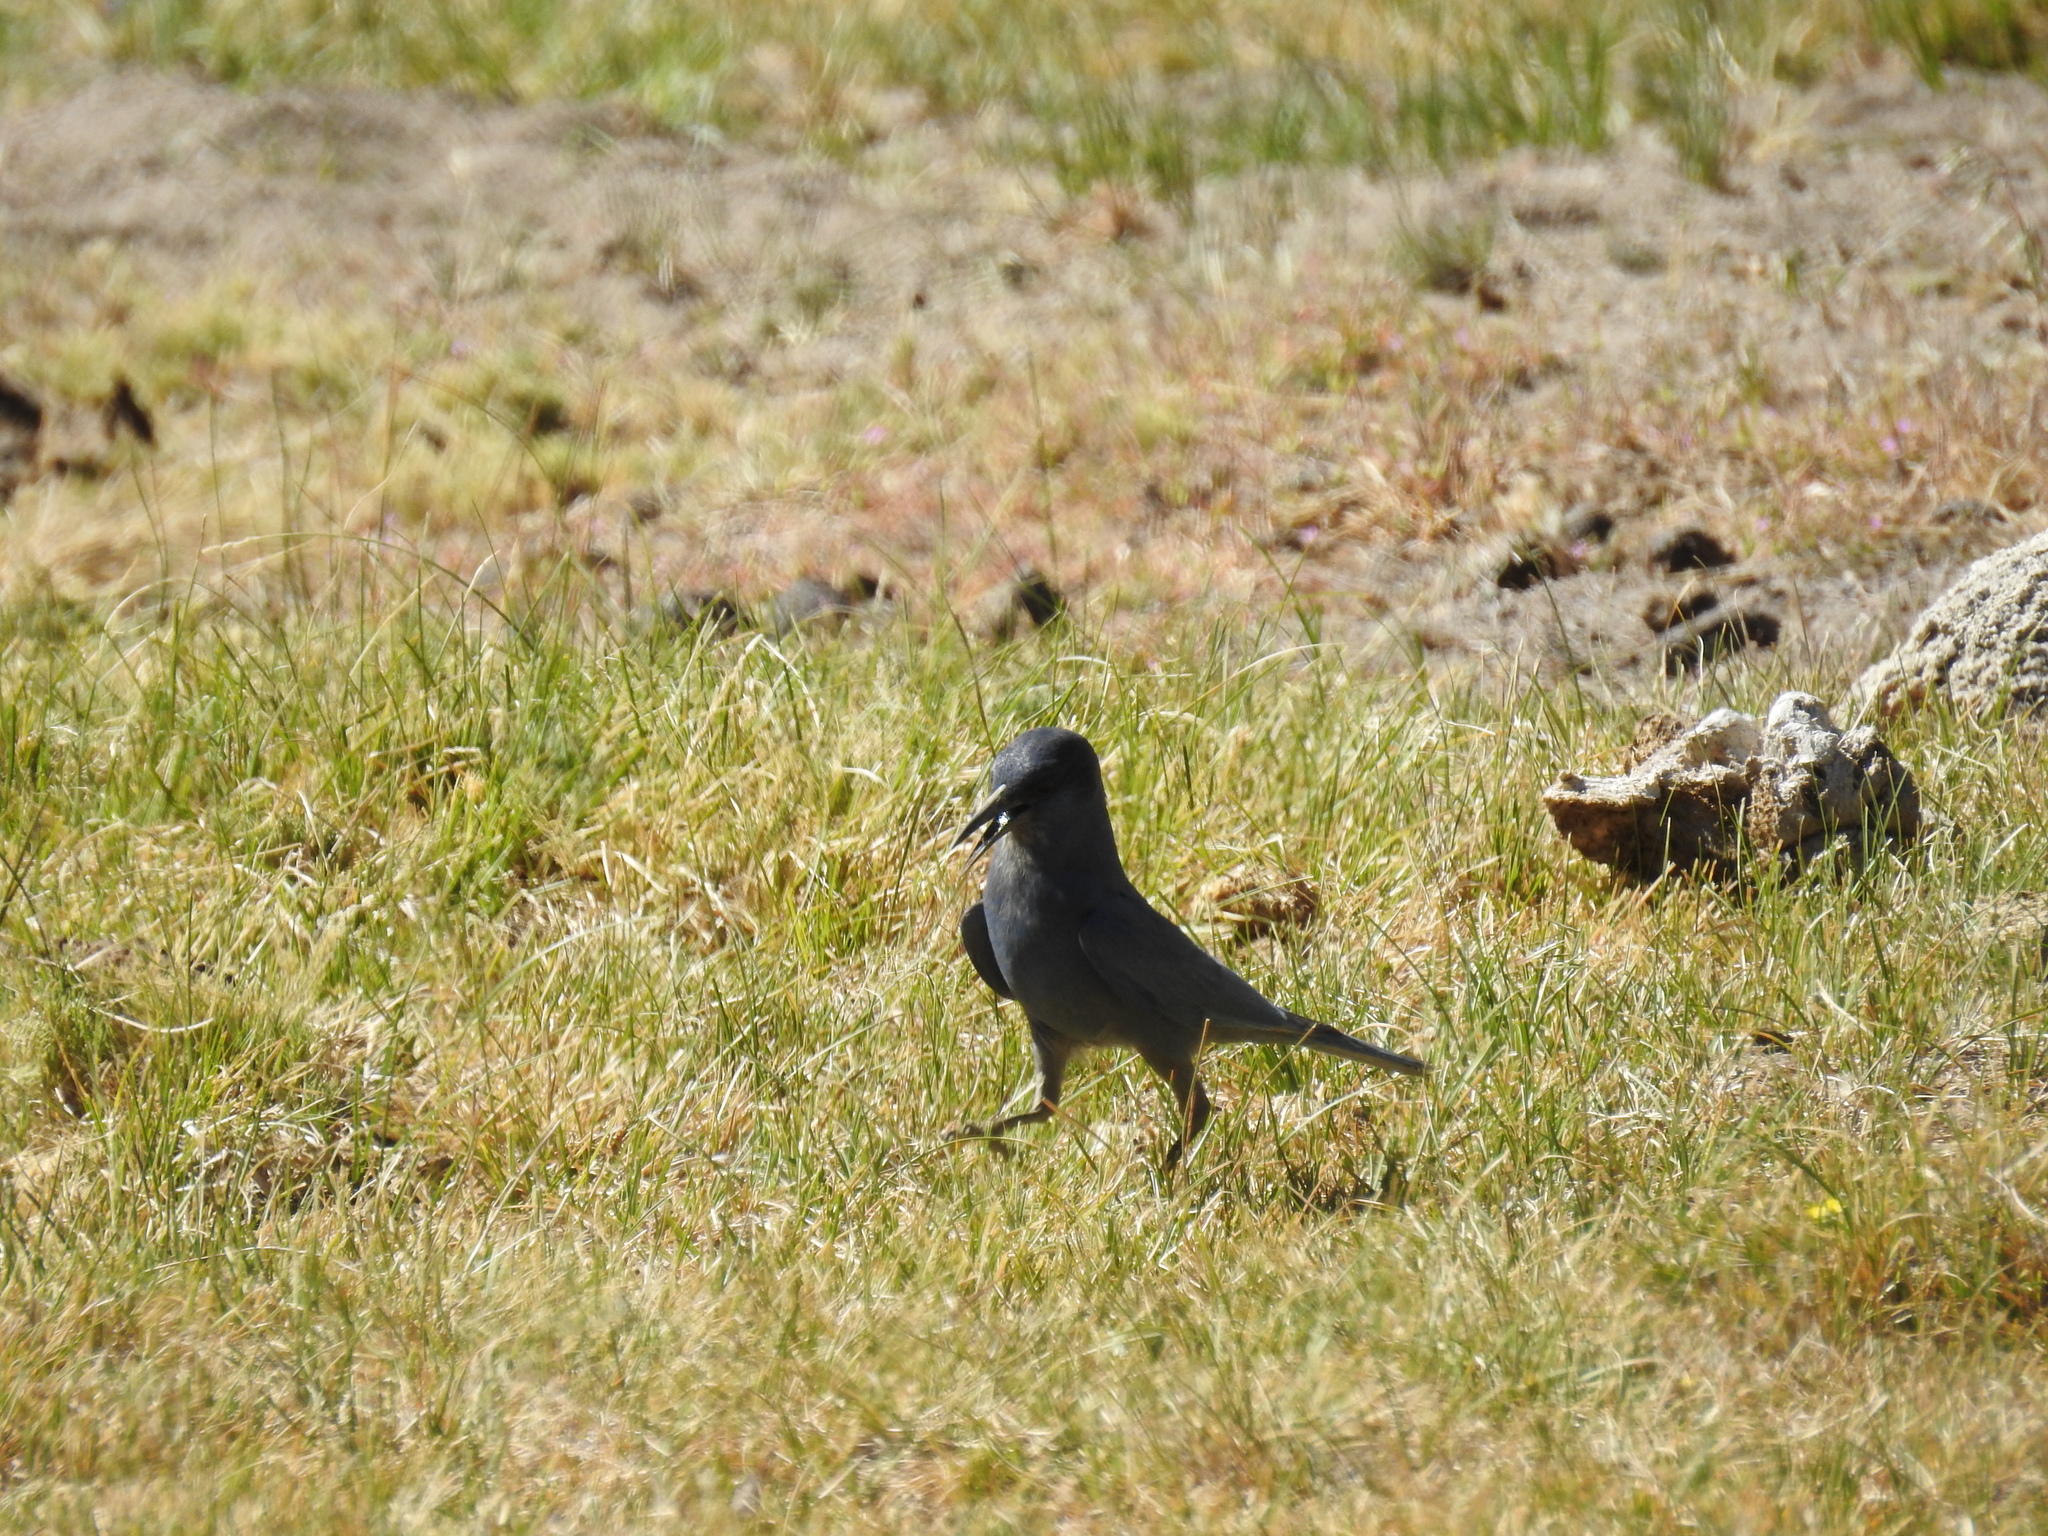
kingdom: Animalia
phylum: Chordata
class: Aves
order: Passeriformes
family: Corvidae
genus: Gymnorhinus
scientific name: Gymnorhinus cyanocephalus
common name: Pinyon jay
